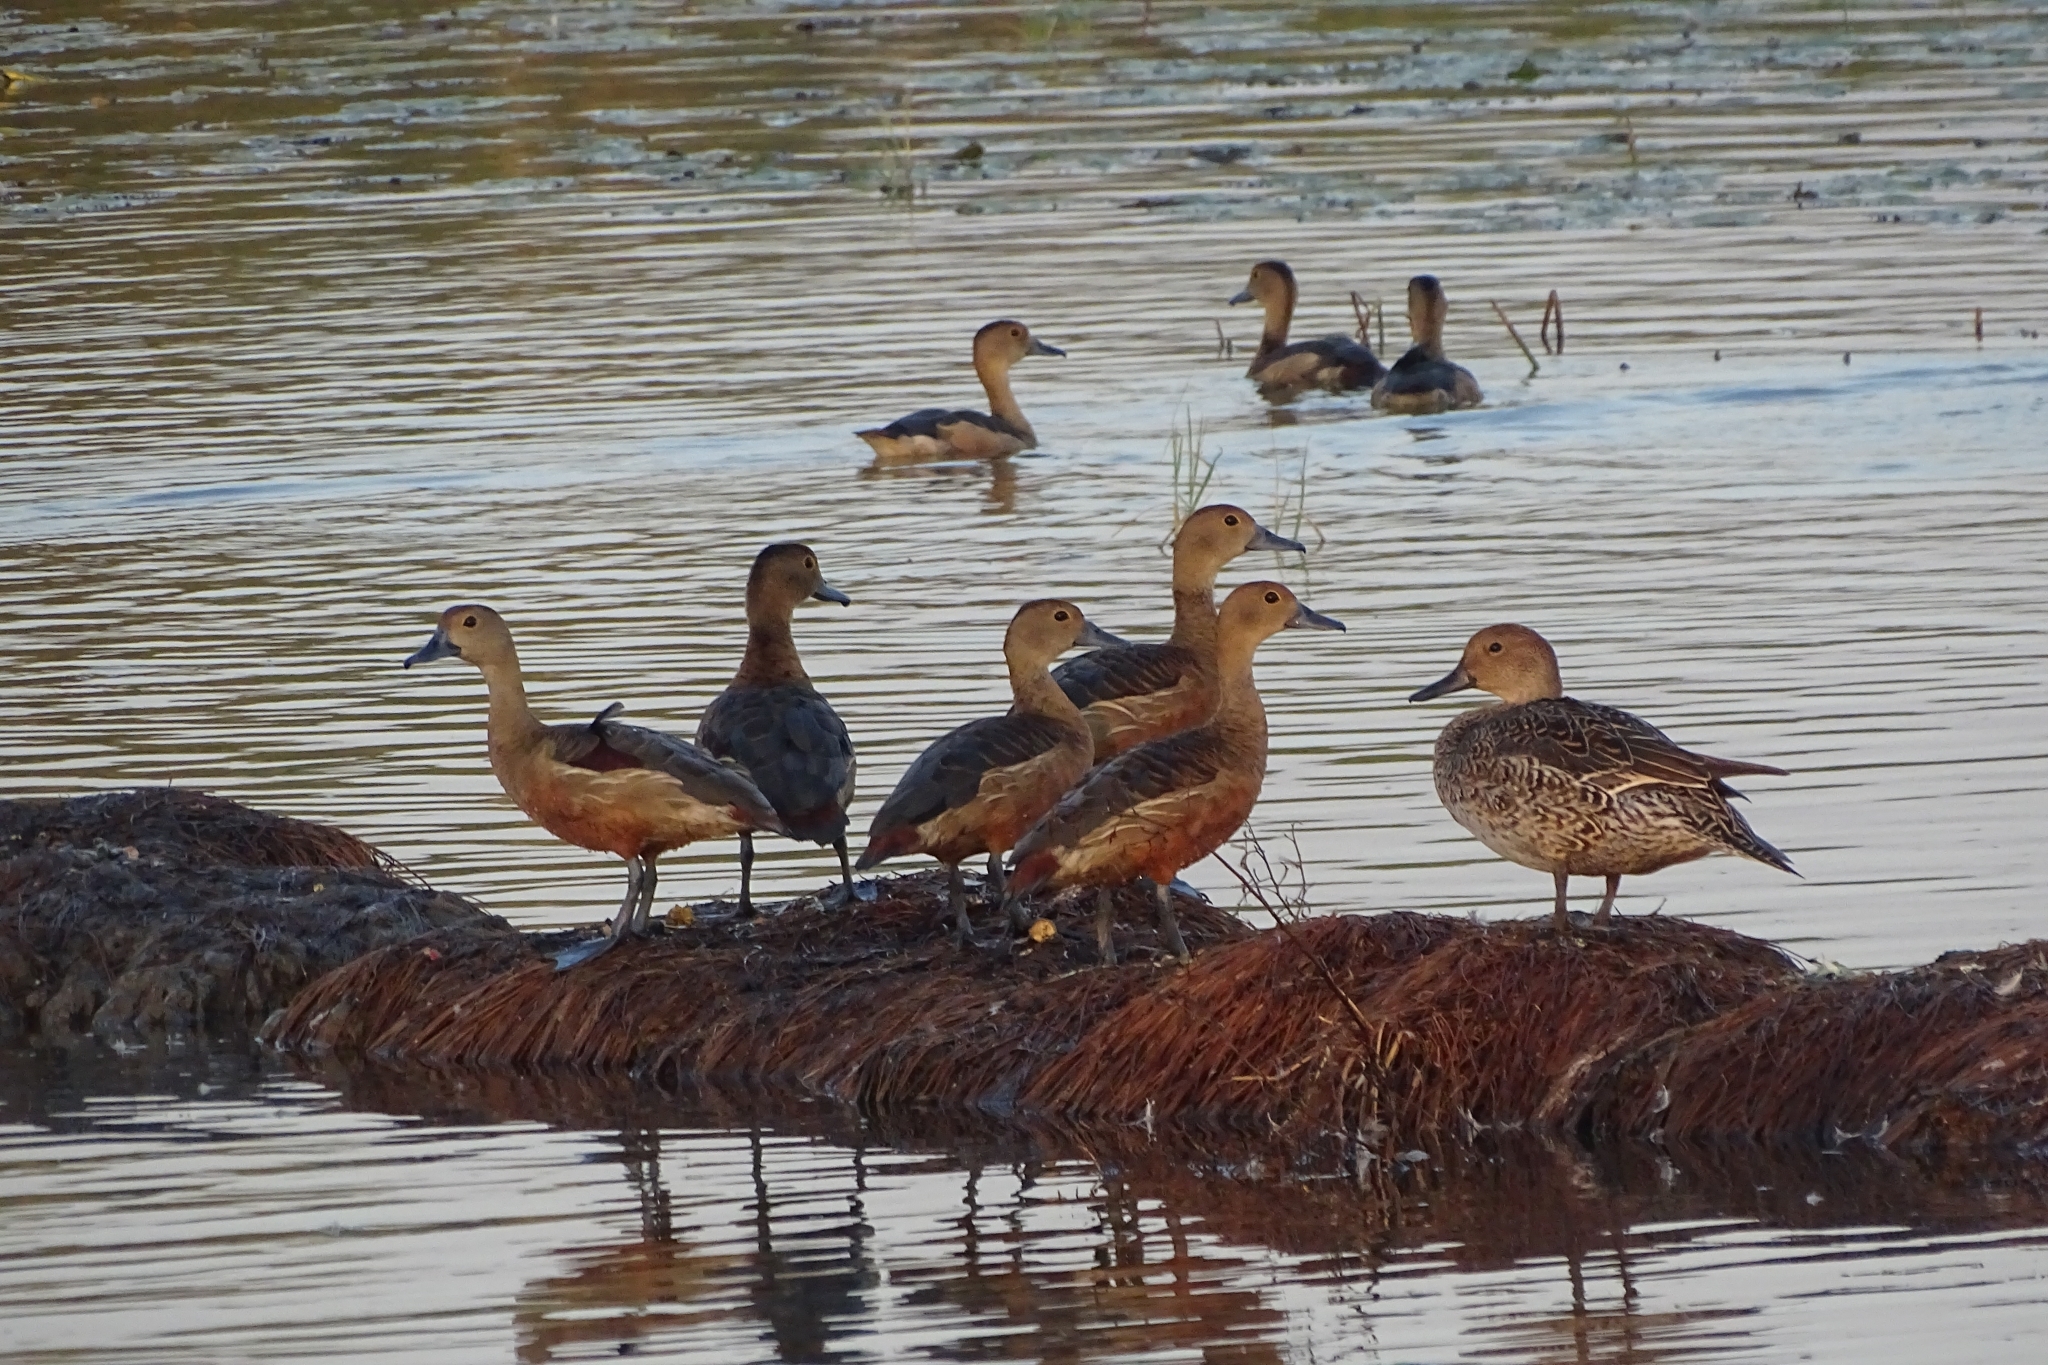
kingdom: Animalia
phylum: Chordata
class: Aves
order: Anseriformes
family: Anatidae
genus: Dendrocygna
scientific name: Dendrocygna javanica
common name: Lesser whistling-duck
